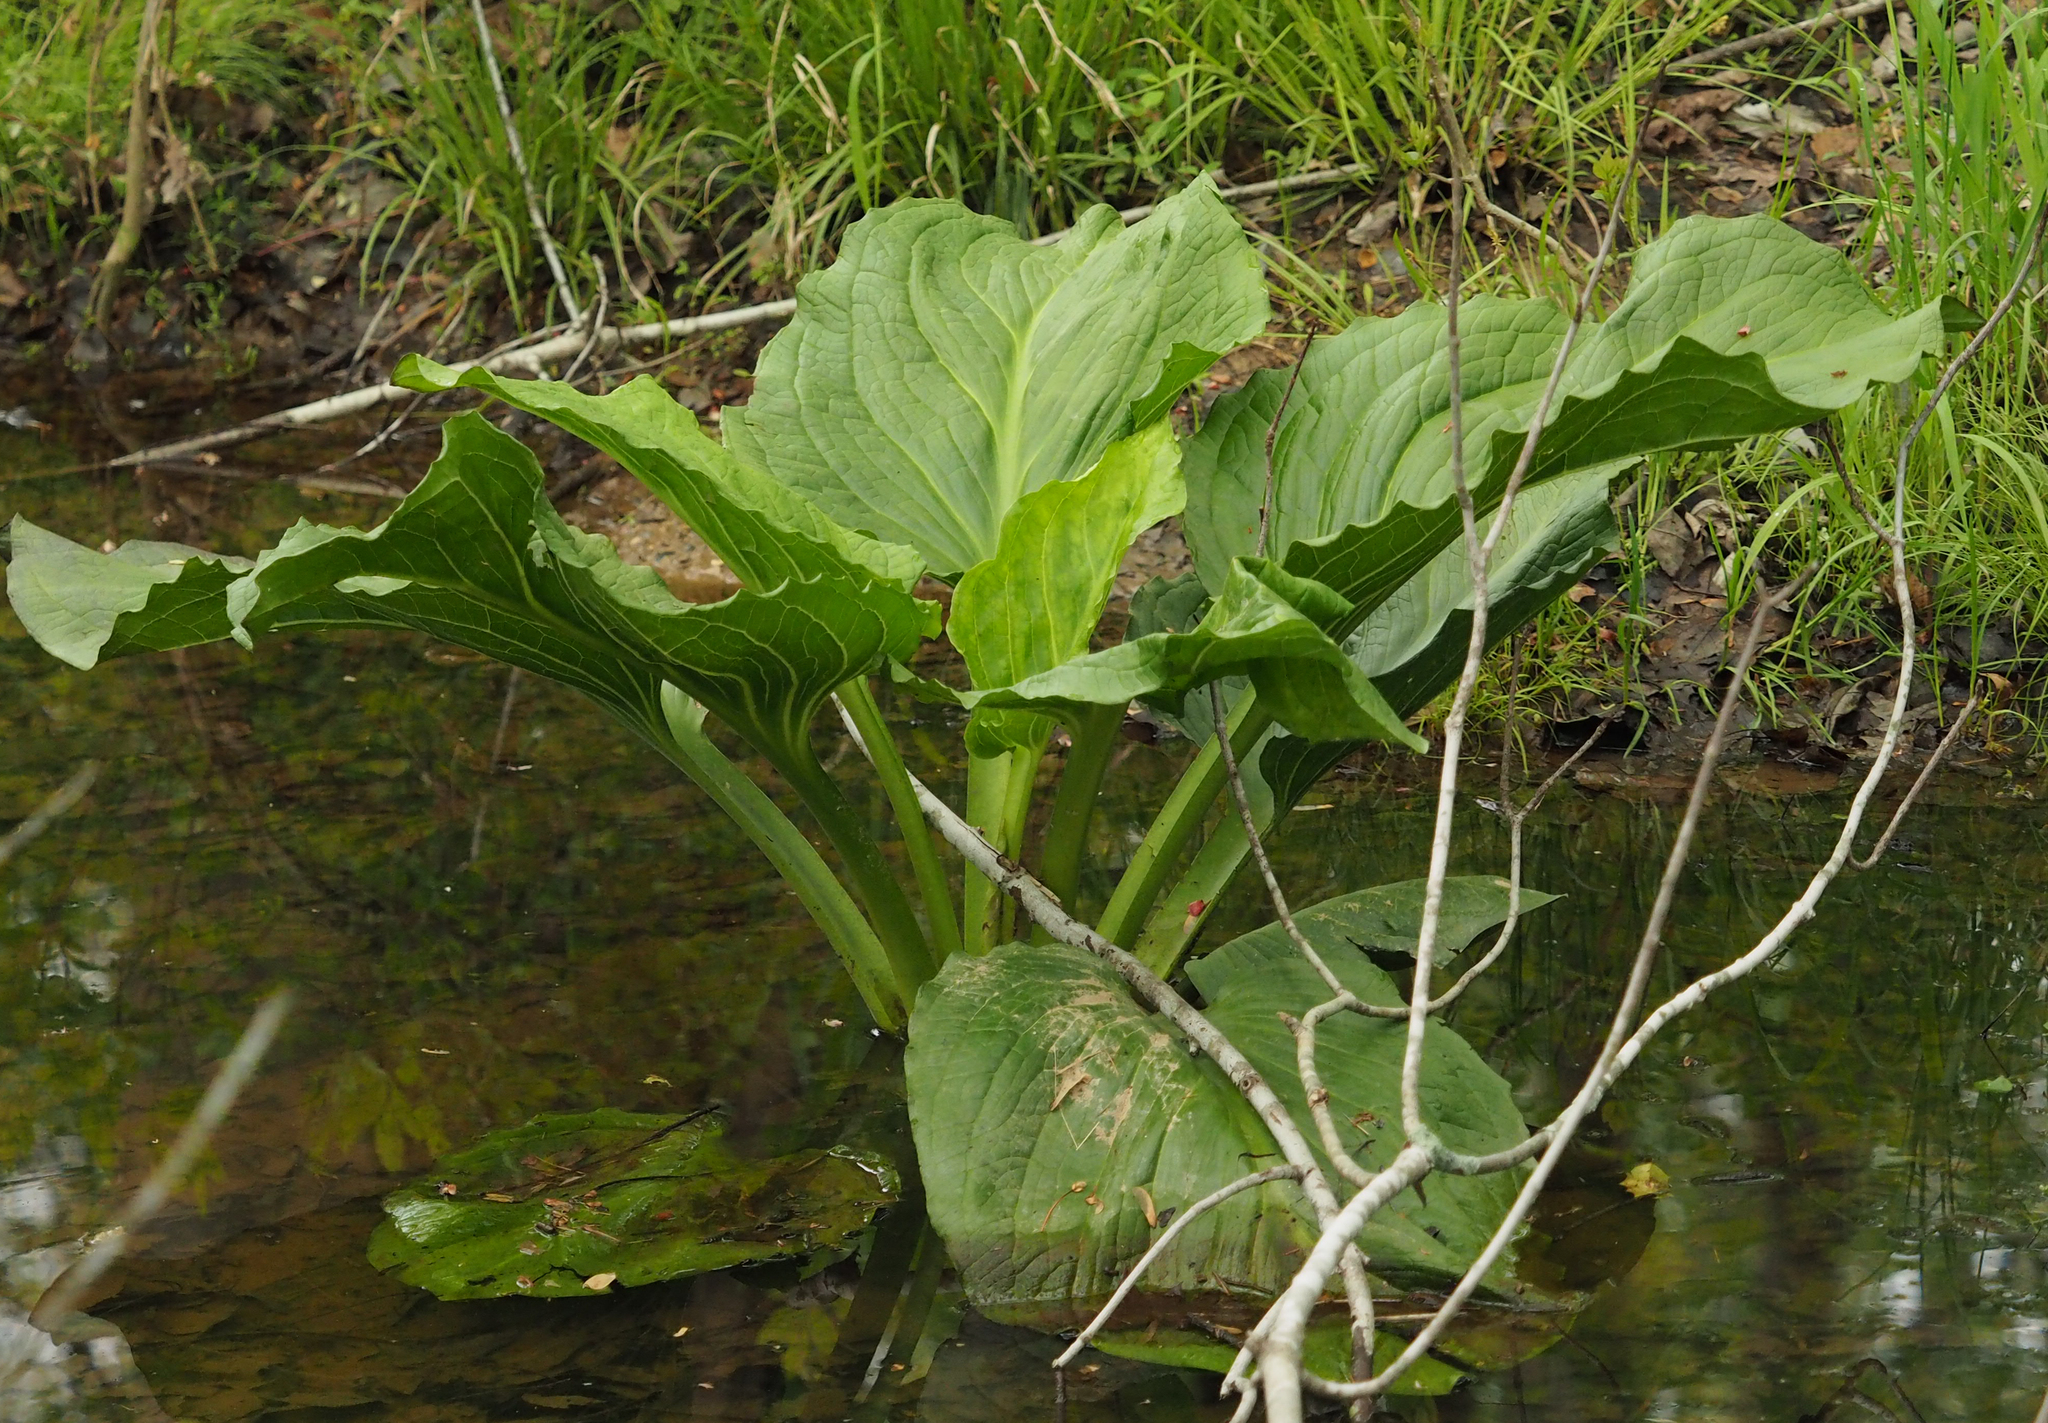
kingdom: Plantae
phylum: Tracheophyta
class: Liliopsida
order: Alismatales
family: Araceae
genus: Symplocarpus
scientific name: Symplocarpus foetidus
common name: Eastern skunk cabbage
